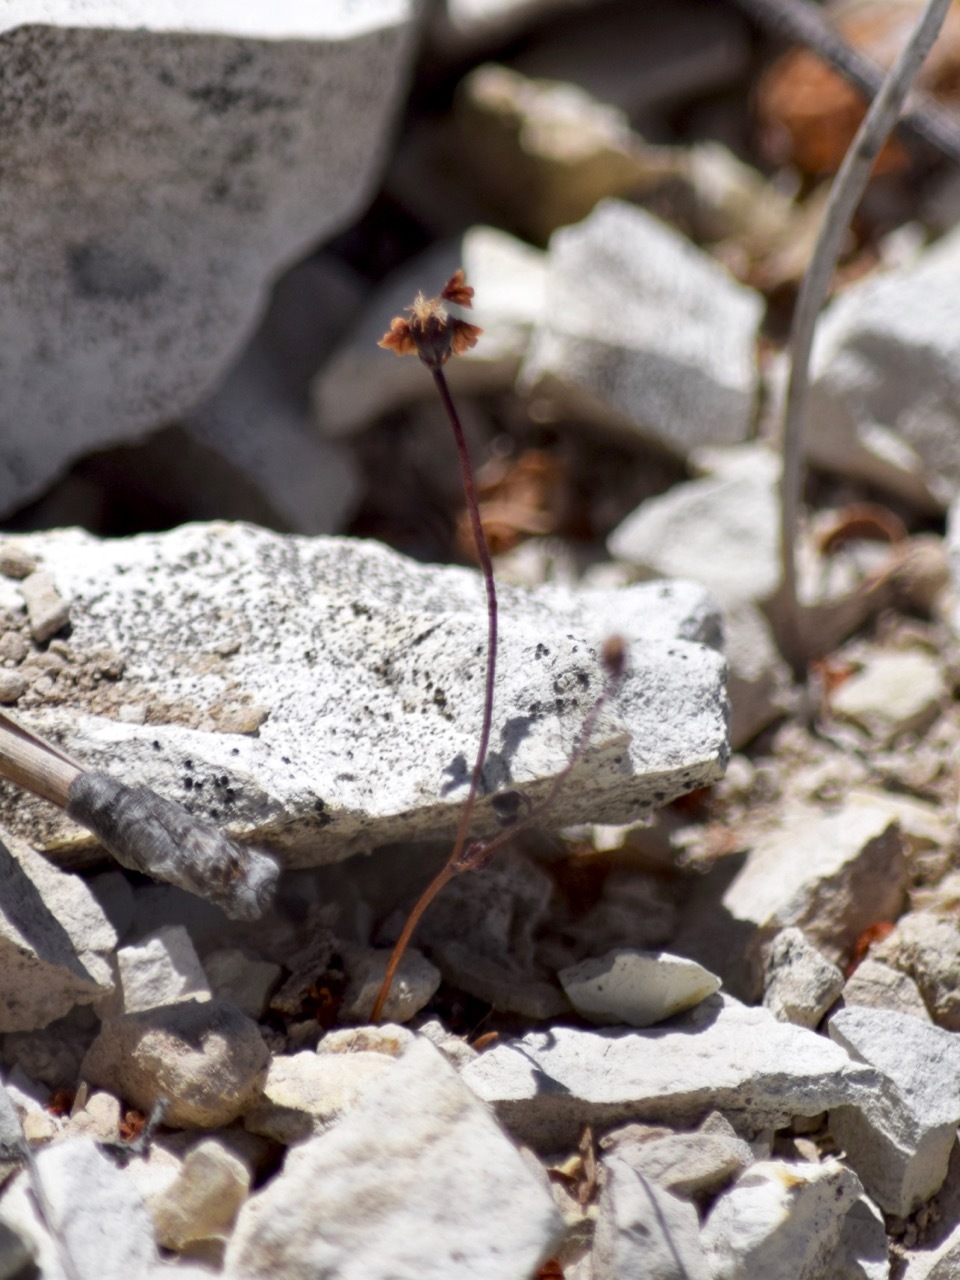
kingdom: Plantae
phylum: Tracheophyta
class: Magnoliopsida
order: Caryophyllales
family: Polygonaceae
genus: Eriogonum
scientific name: Eriogonum nortonii
